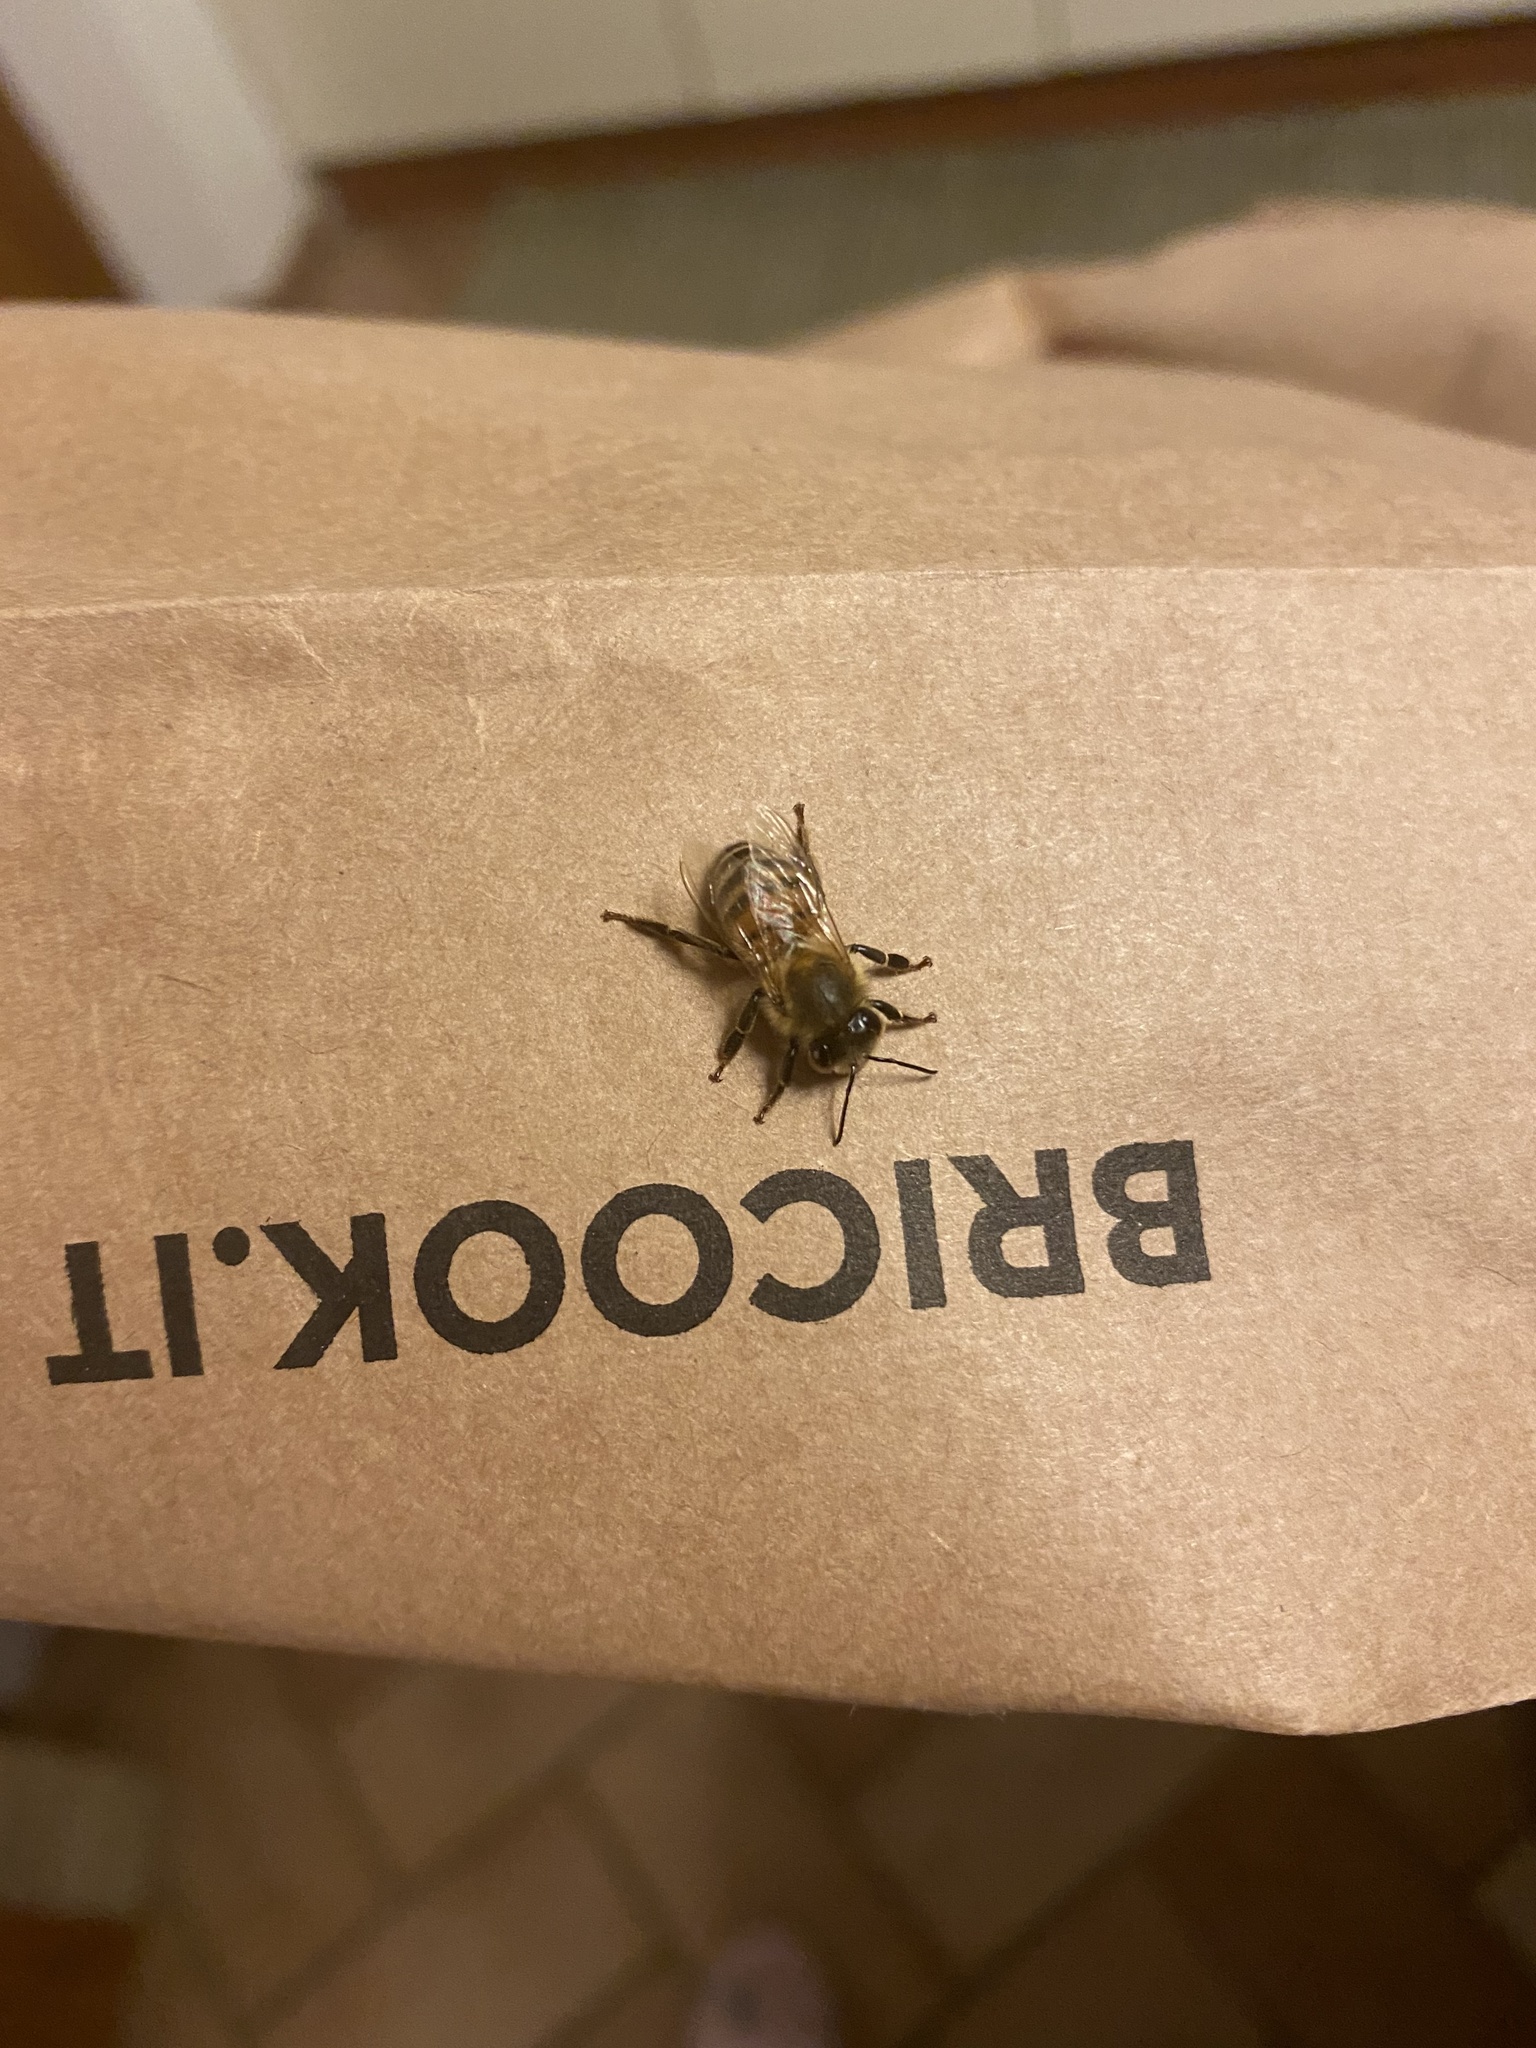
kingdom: Animalia
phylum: Arthropoda
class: Insecta
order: Hymenoptera
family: Apidae
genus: Apis
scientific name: Apis mellifera
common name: Honey bee
